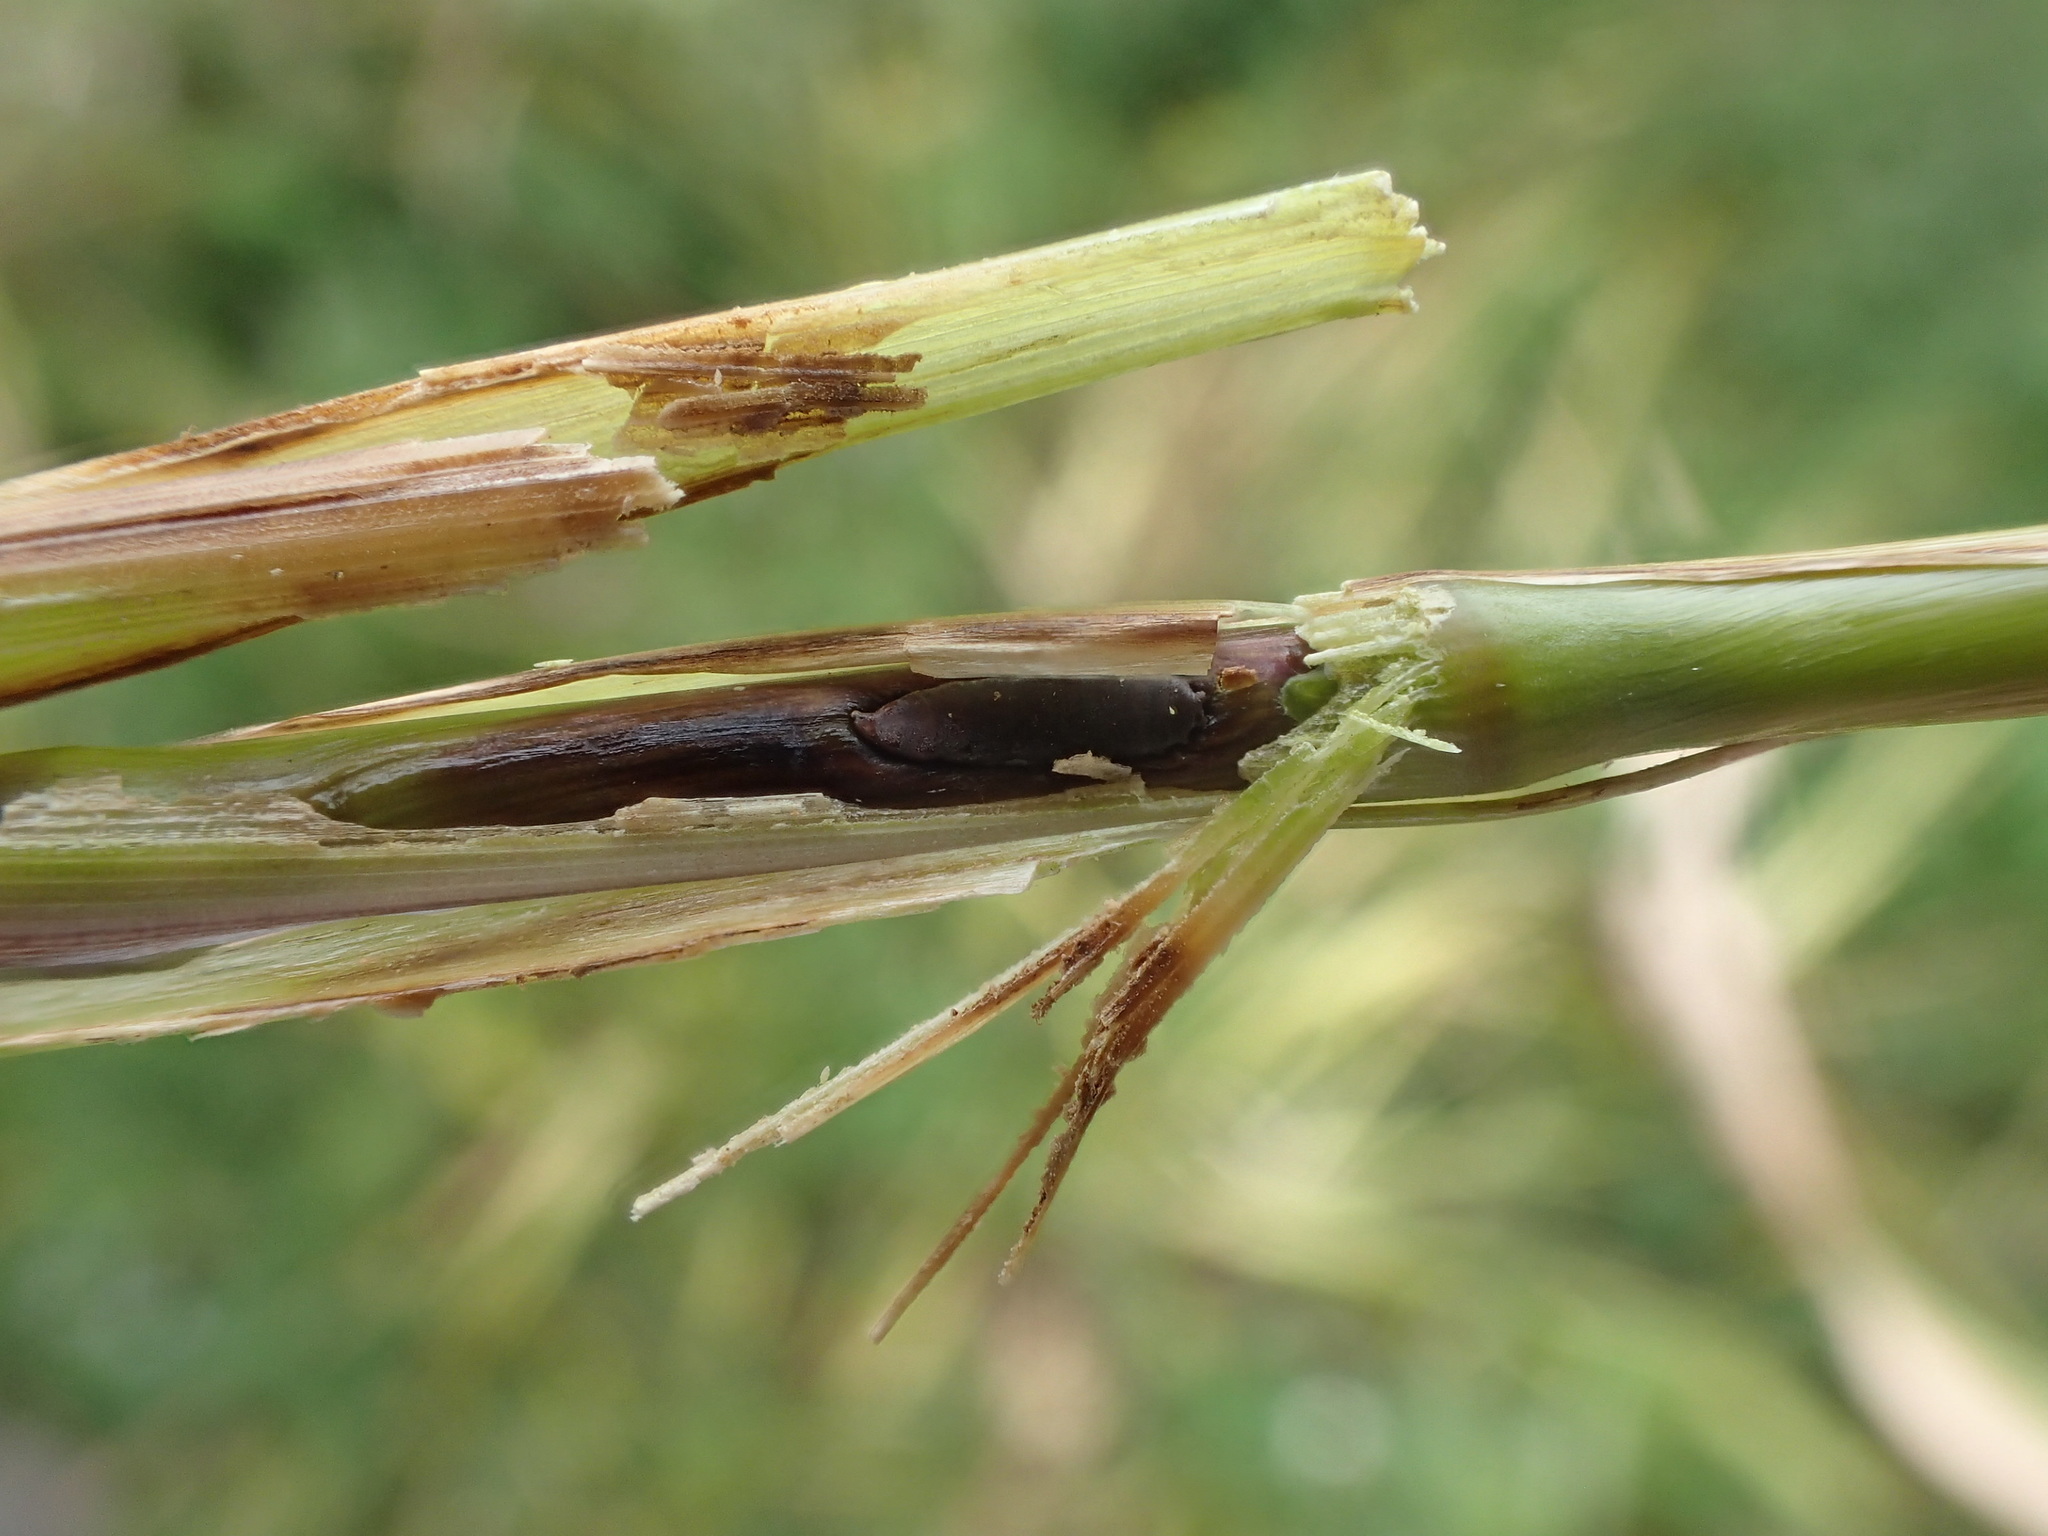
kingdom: Animalia
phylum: Arthropoda
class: Insecta
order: Diptera
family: Cecidomyiidae
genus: Mayetiola
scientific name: Mayetiola phalaris
